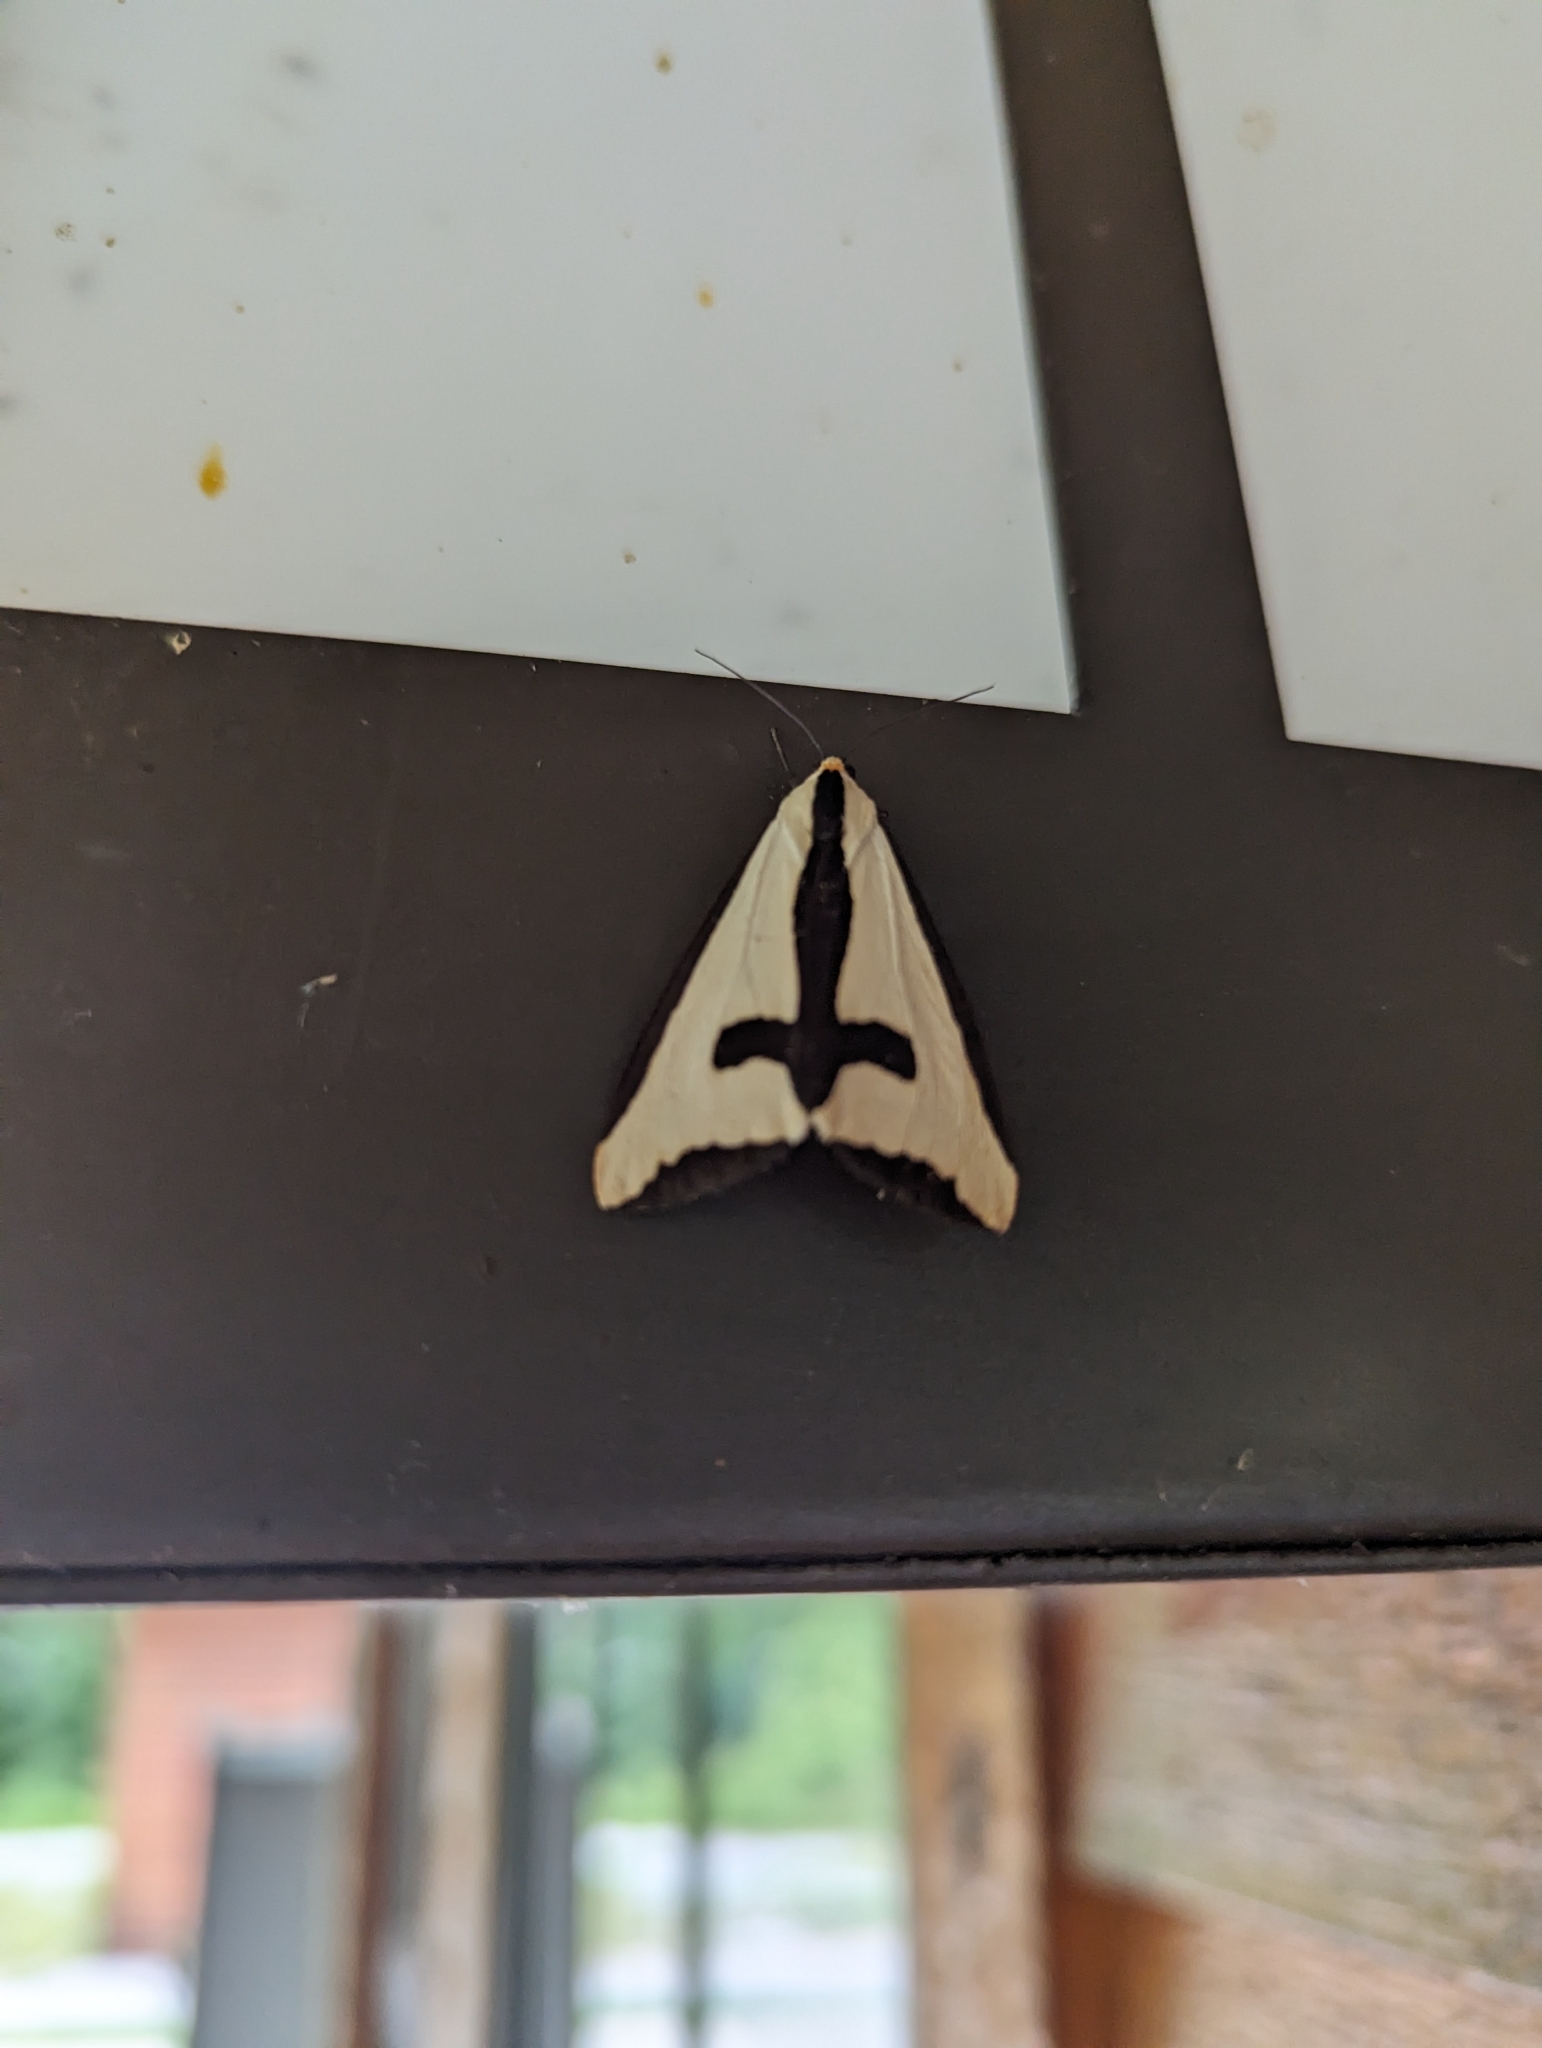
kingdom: Animalia
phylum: Arthropoda
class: Insecta
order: Lepidoptera
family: Erebidae
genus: Haploa
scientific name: Haploa clymene
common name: Clymene moth
